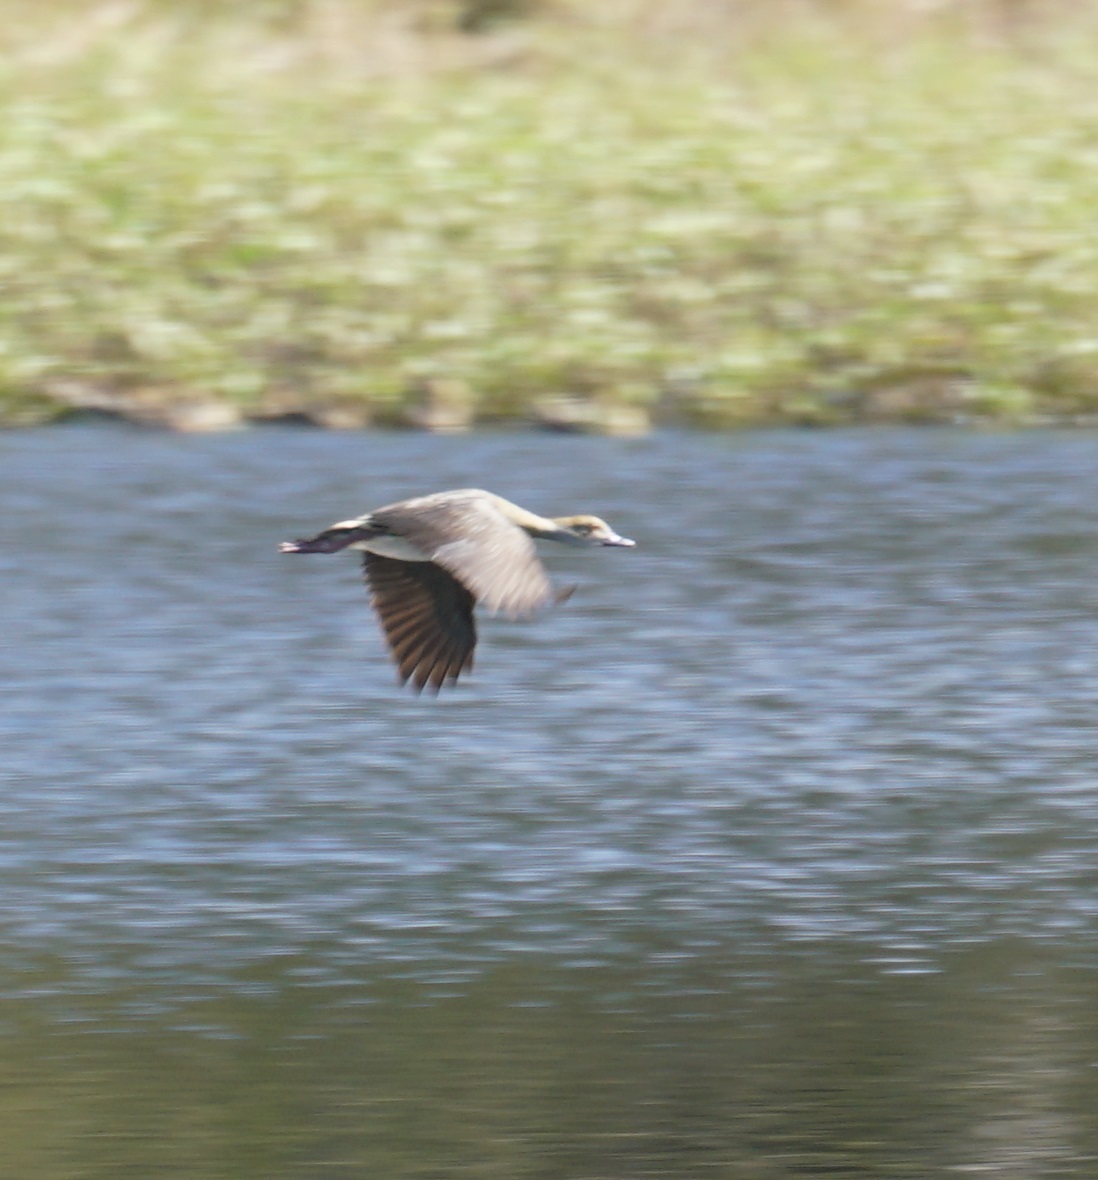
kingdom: Animalia
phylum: Chordata
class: Aves
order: Anseriformes
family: Anatidae
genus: Dendrocygna
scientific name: Dendrocygna eytoni
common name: Plumed whistling-duck
